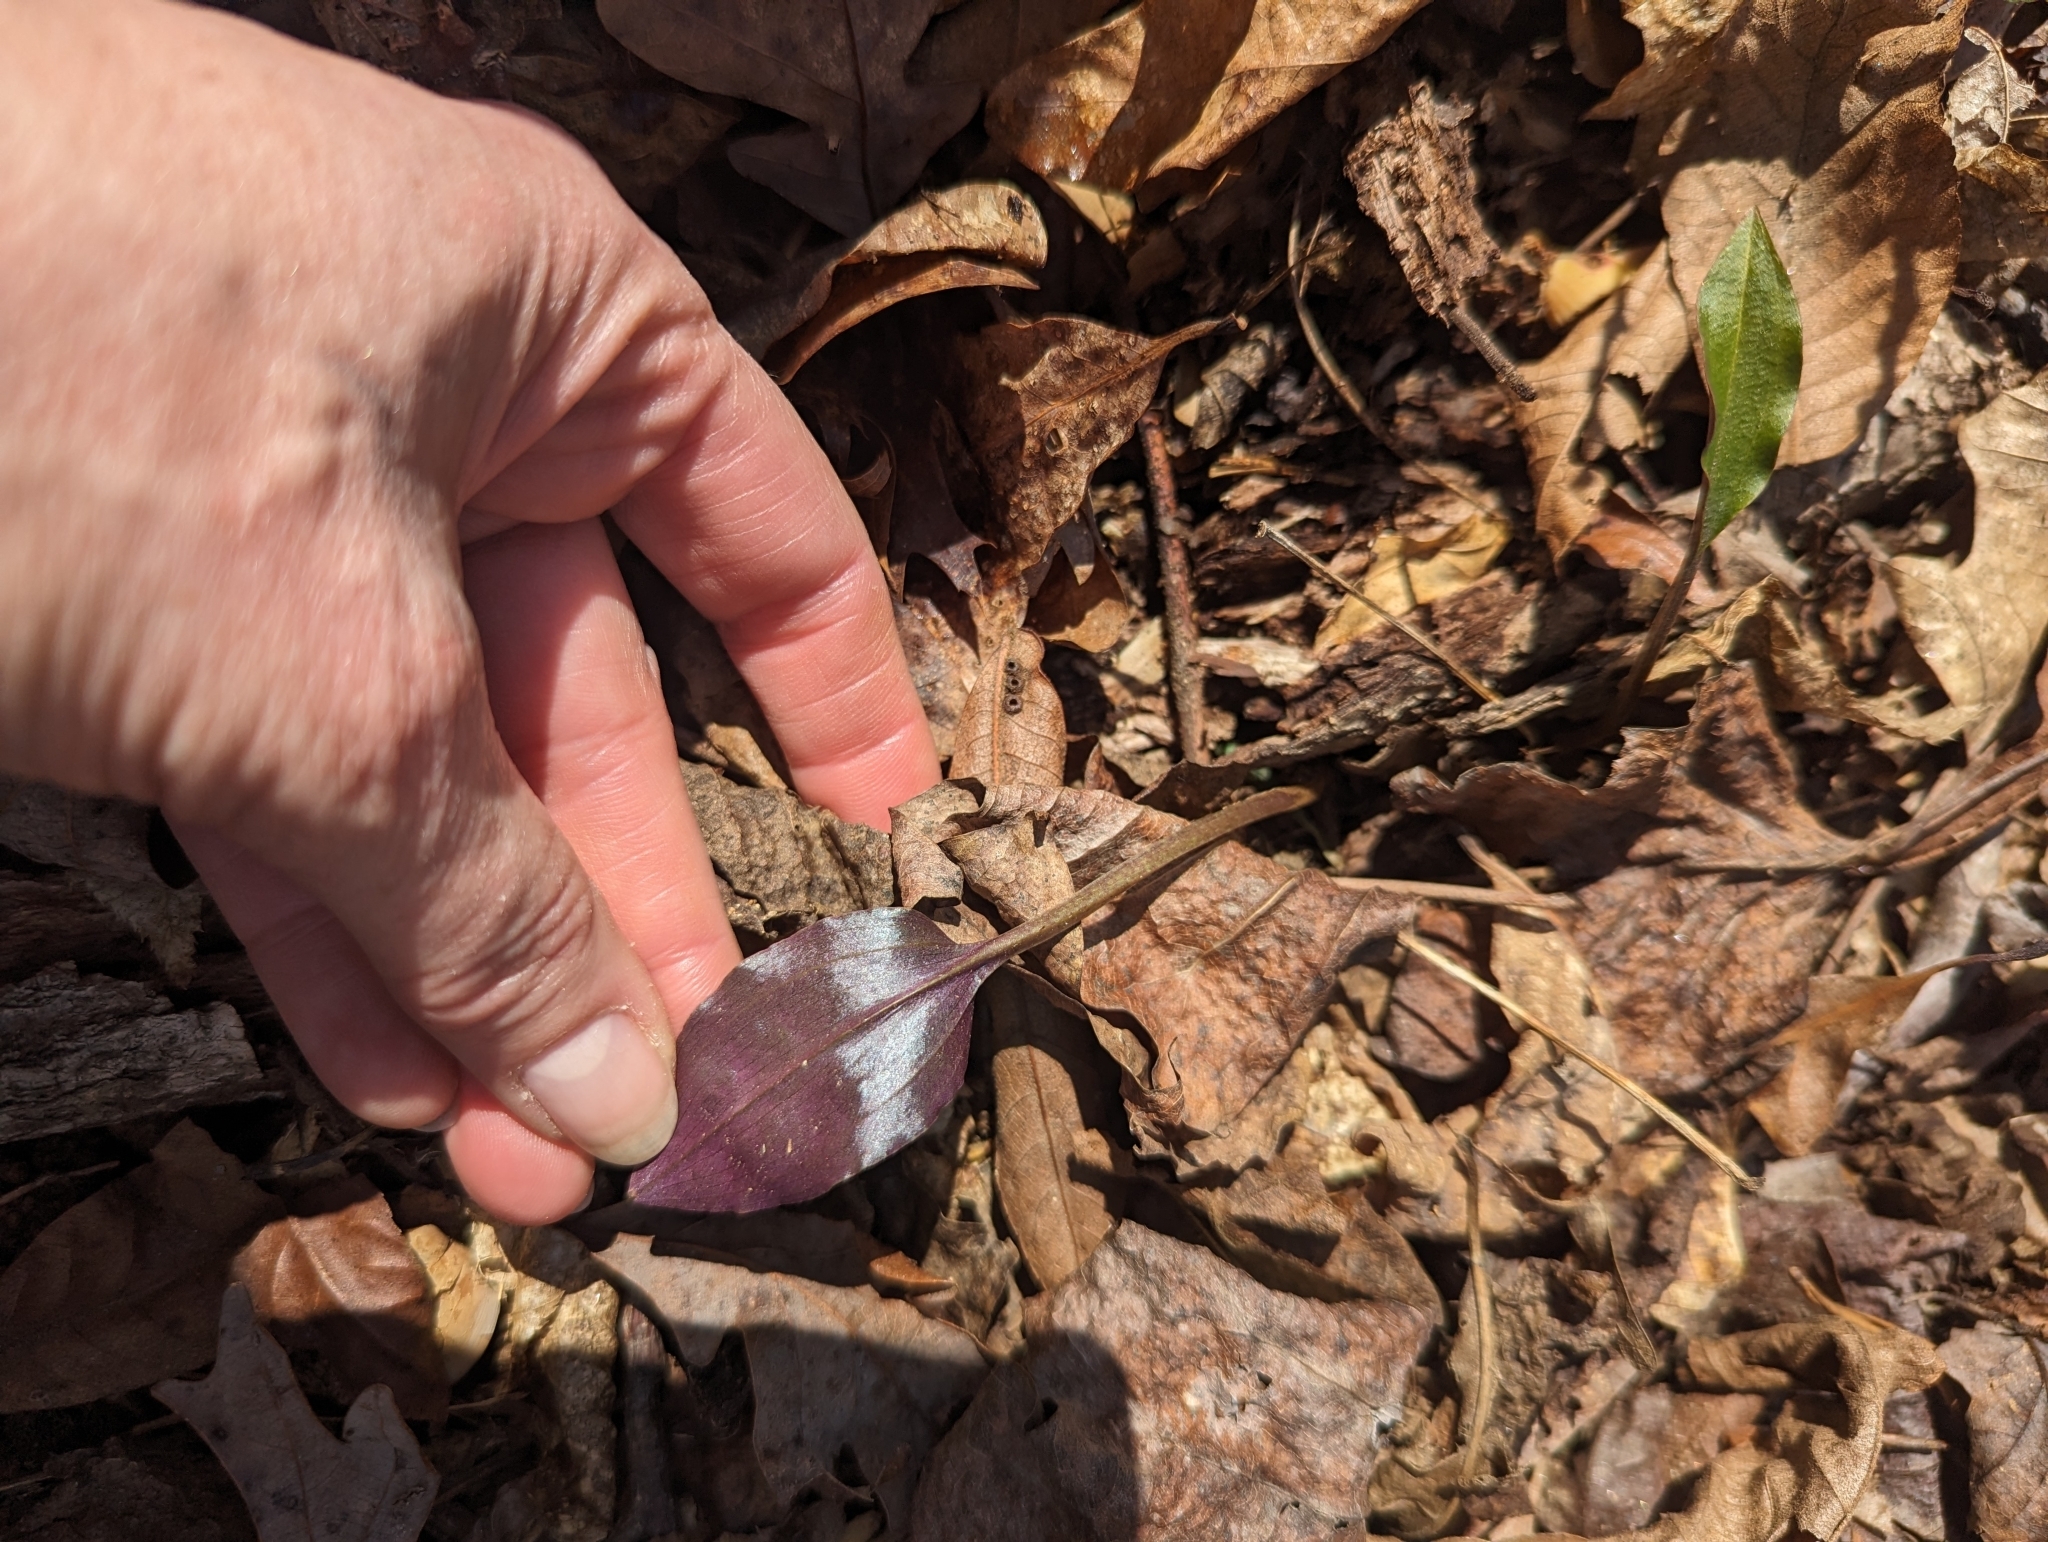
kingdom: Plantae
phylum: Tracheophyta
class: Liliopsida
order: Asparagales
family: Orchidaceae
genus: Tipularia
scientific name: Tipularia discolor
